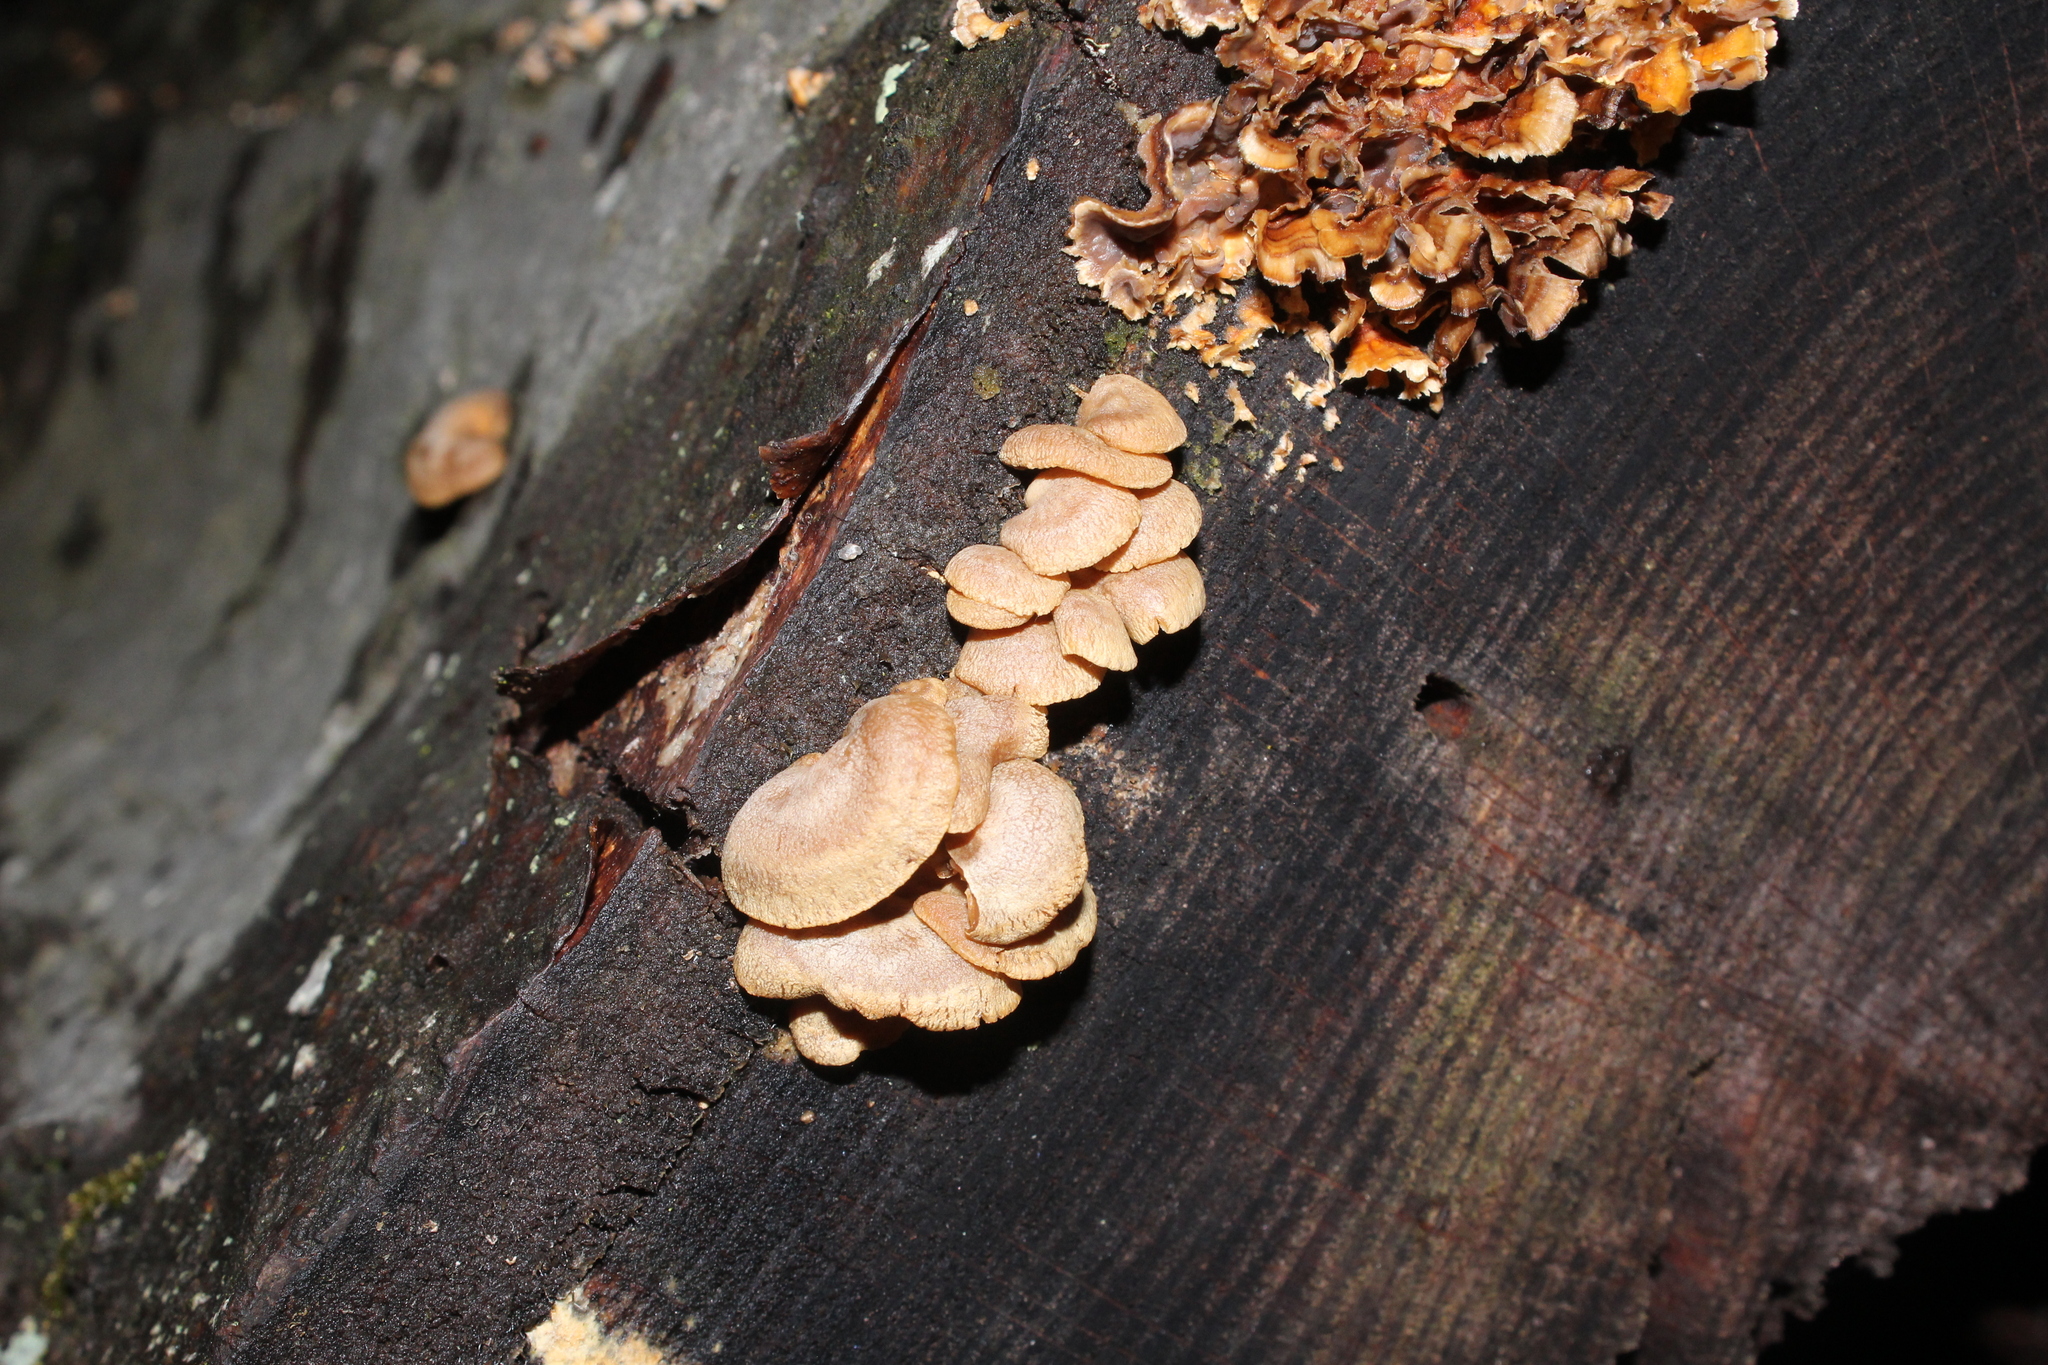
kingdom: Fungi
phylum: Basidiomycota
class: Agaricomycetes
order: Agaricales
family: Mycenaceae
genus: Panellus
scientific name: Panellus stipticus
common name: Bitter oysterling
